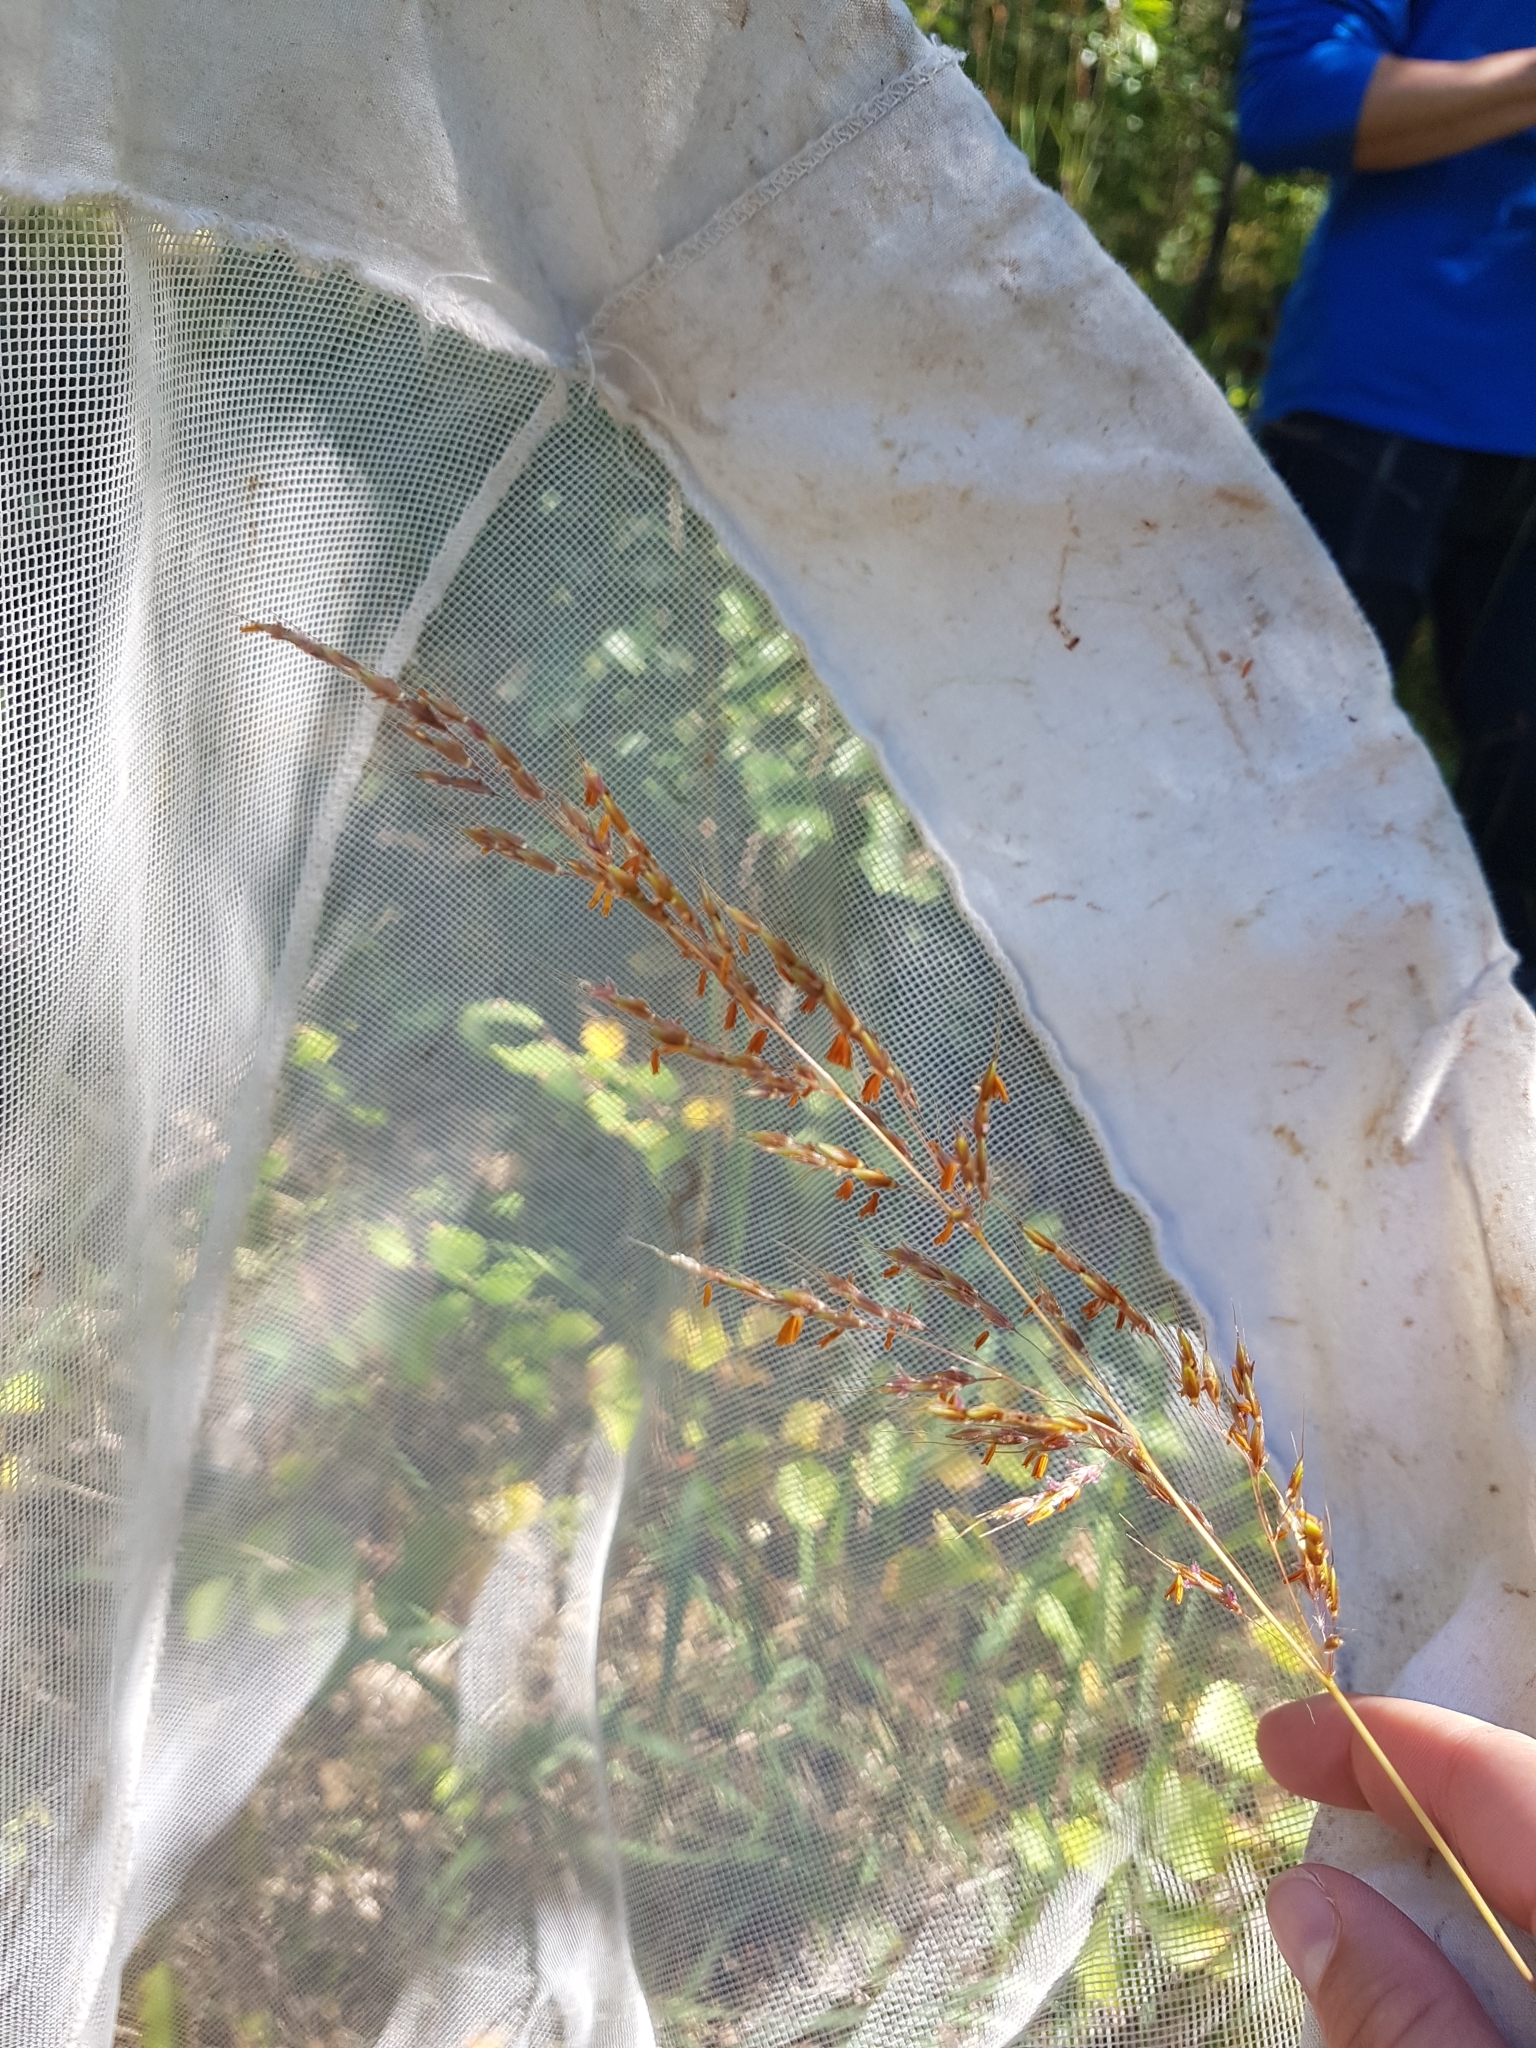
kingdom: Plantae
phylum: Tracheophyta
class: Liliopsida
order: Poales
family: Poaceae
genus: Sorghastrum
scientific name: Sorghastrum nutans
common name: Indian grass
